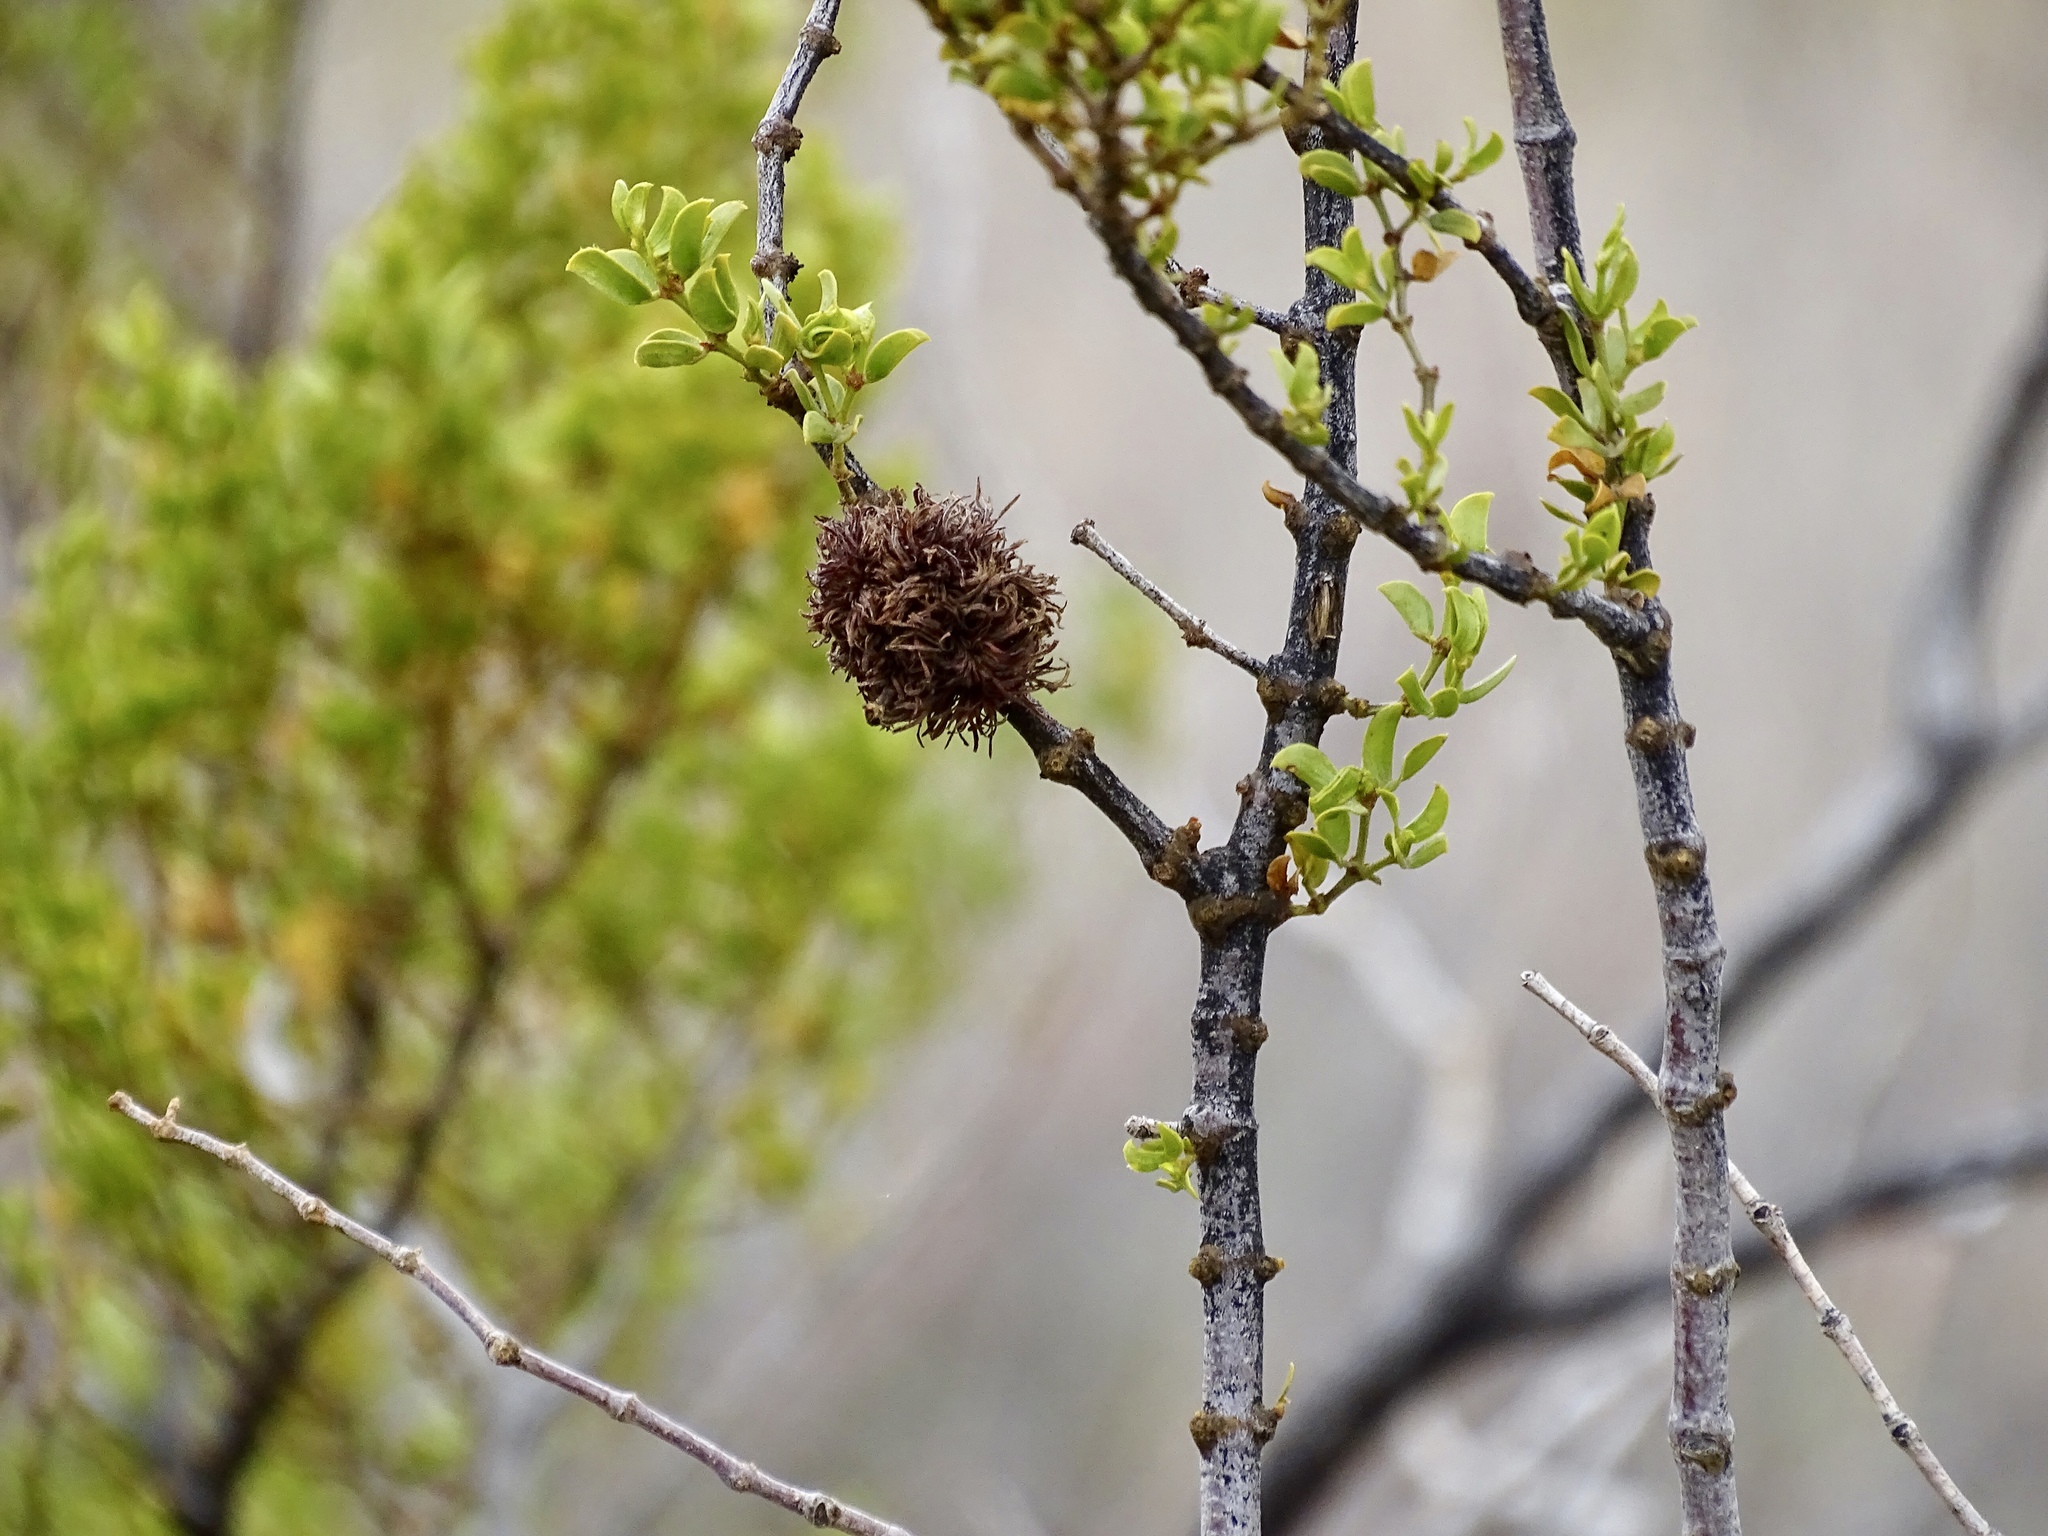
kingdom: Animalia
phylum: Arthropoda
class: Insecta
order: Diptera
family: Cecidomyiidae
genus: Asphondylia
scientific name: Asphondylia auripila
